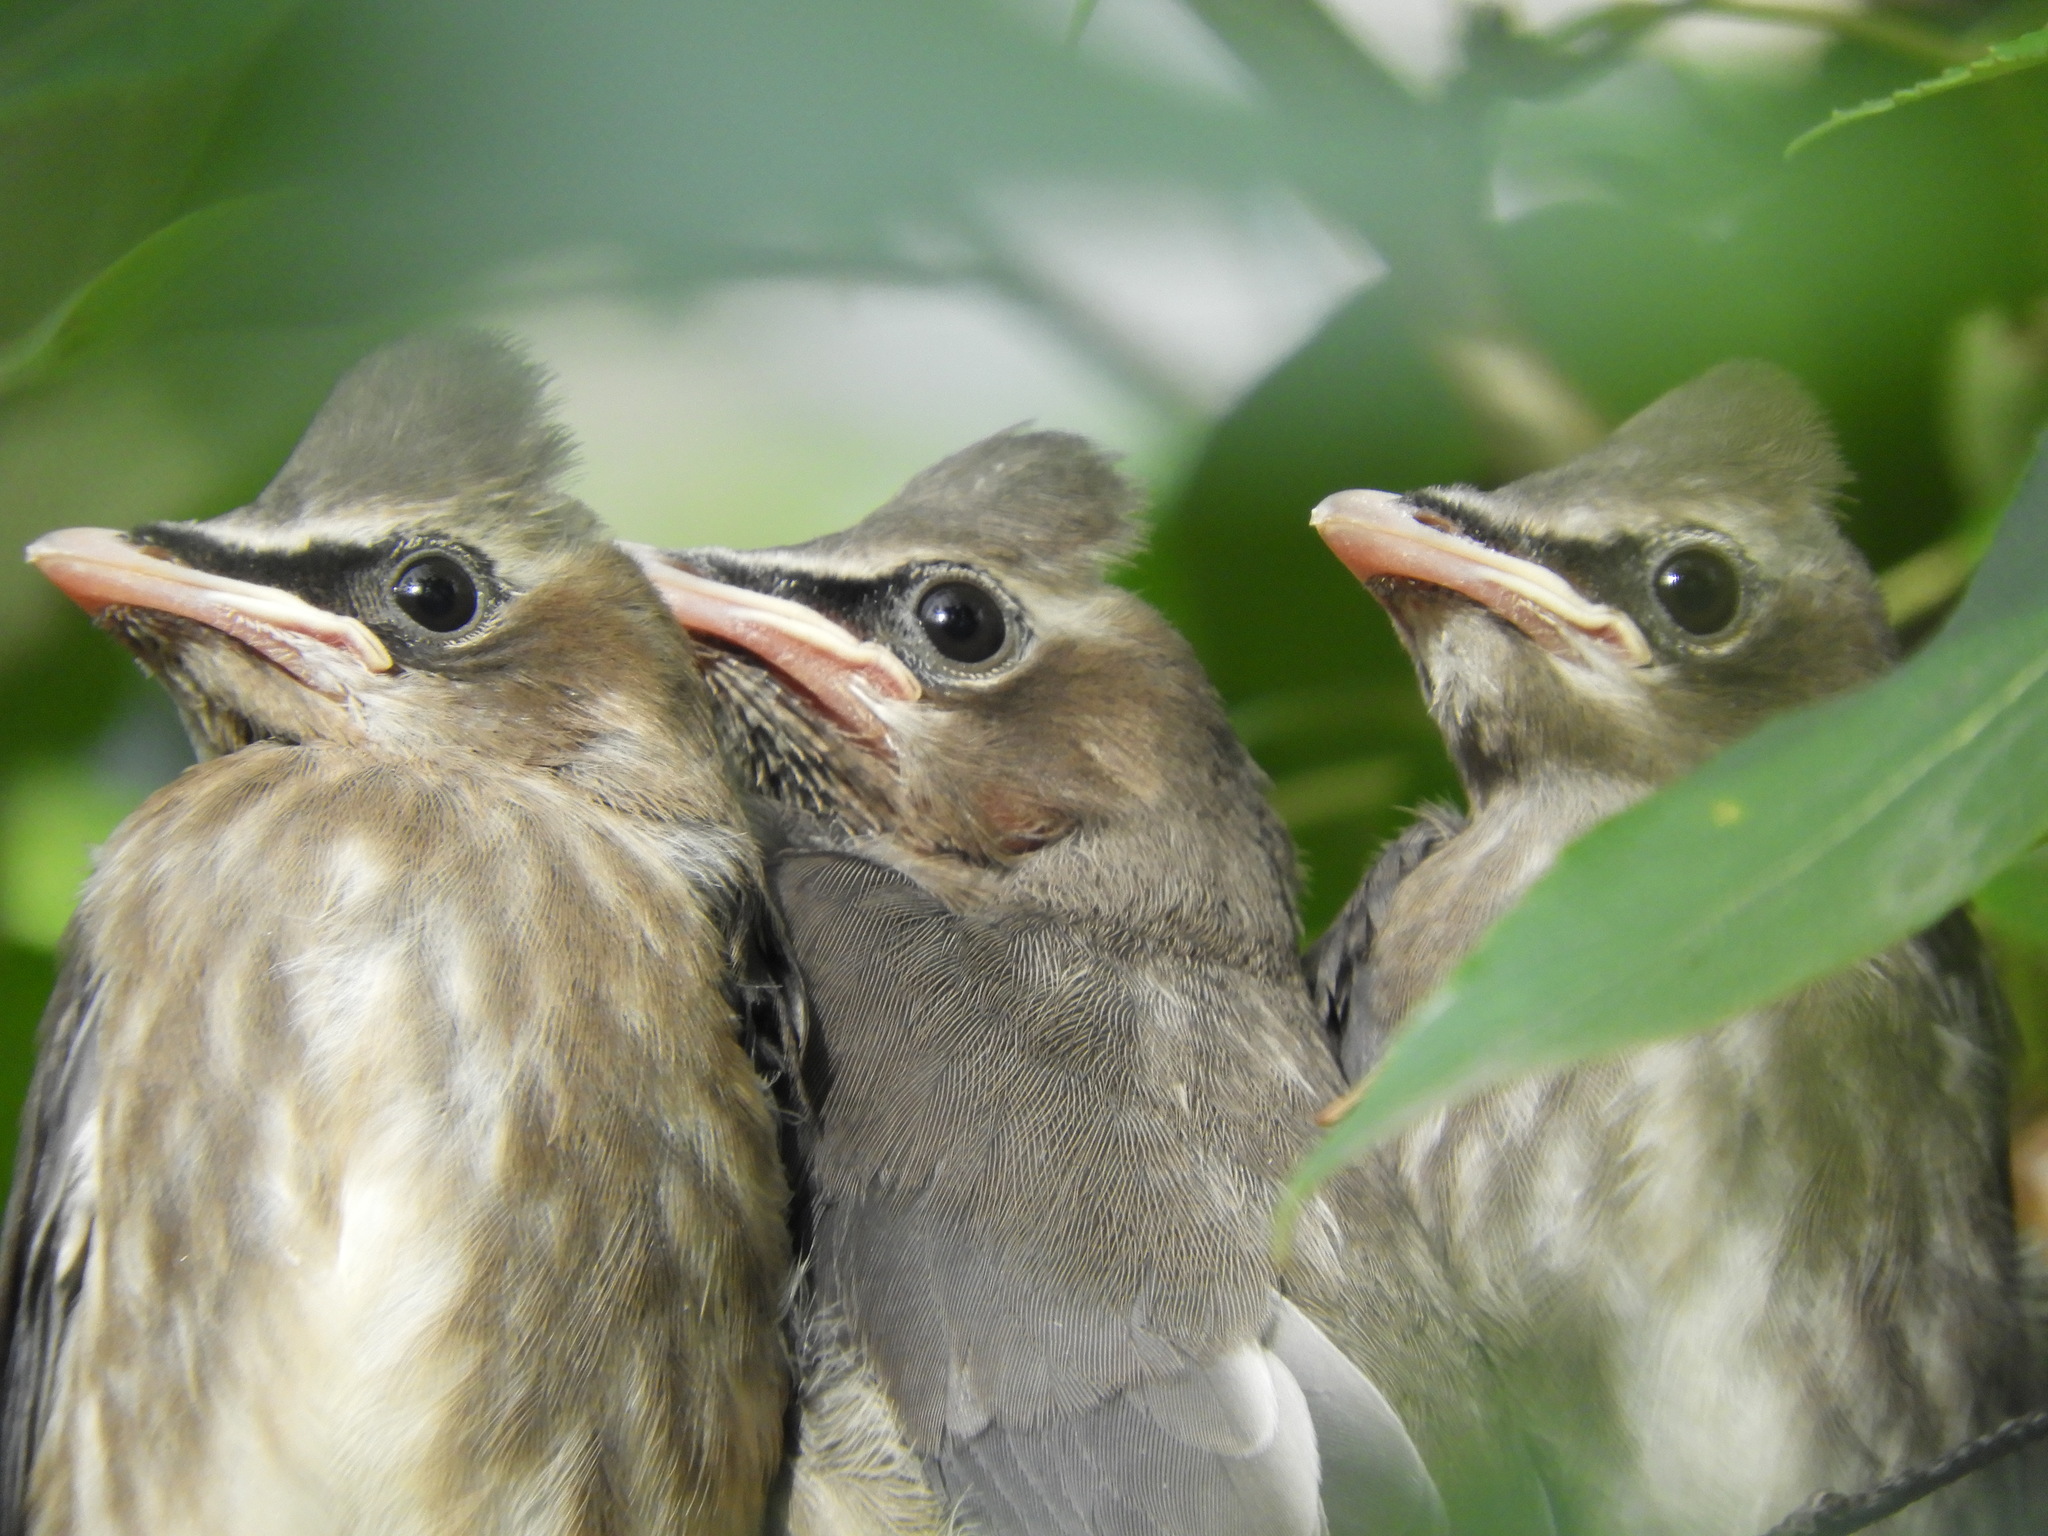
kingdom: Animalia
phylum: Chordata
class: Aves
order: Passeriformes
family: Bombycillidae
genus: Bombycilla
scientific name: Bombycilla cedrorum
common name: Cedar waxwing
